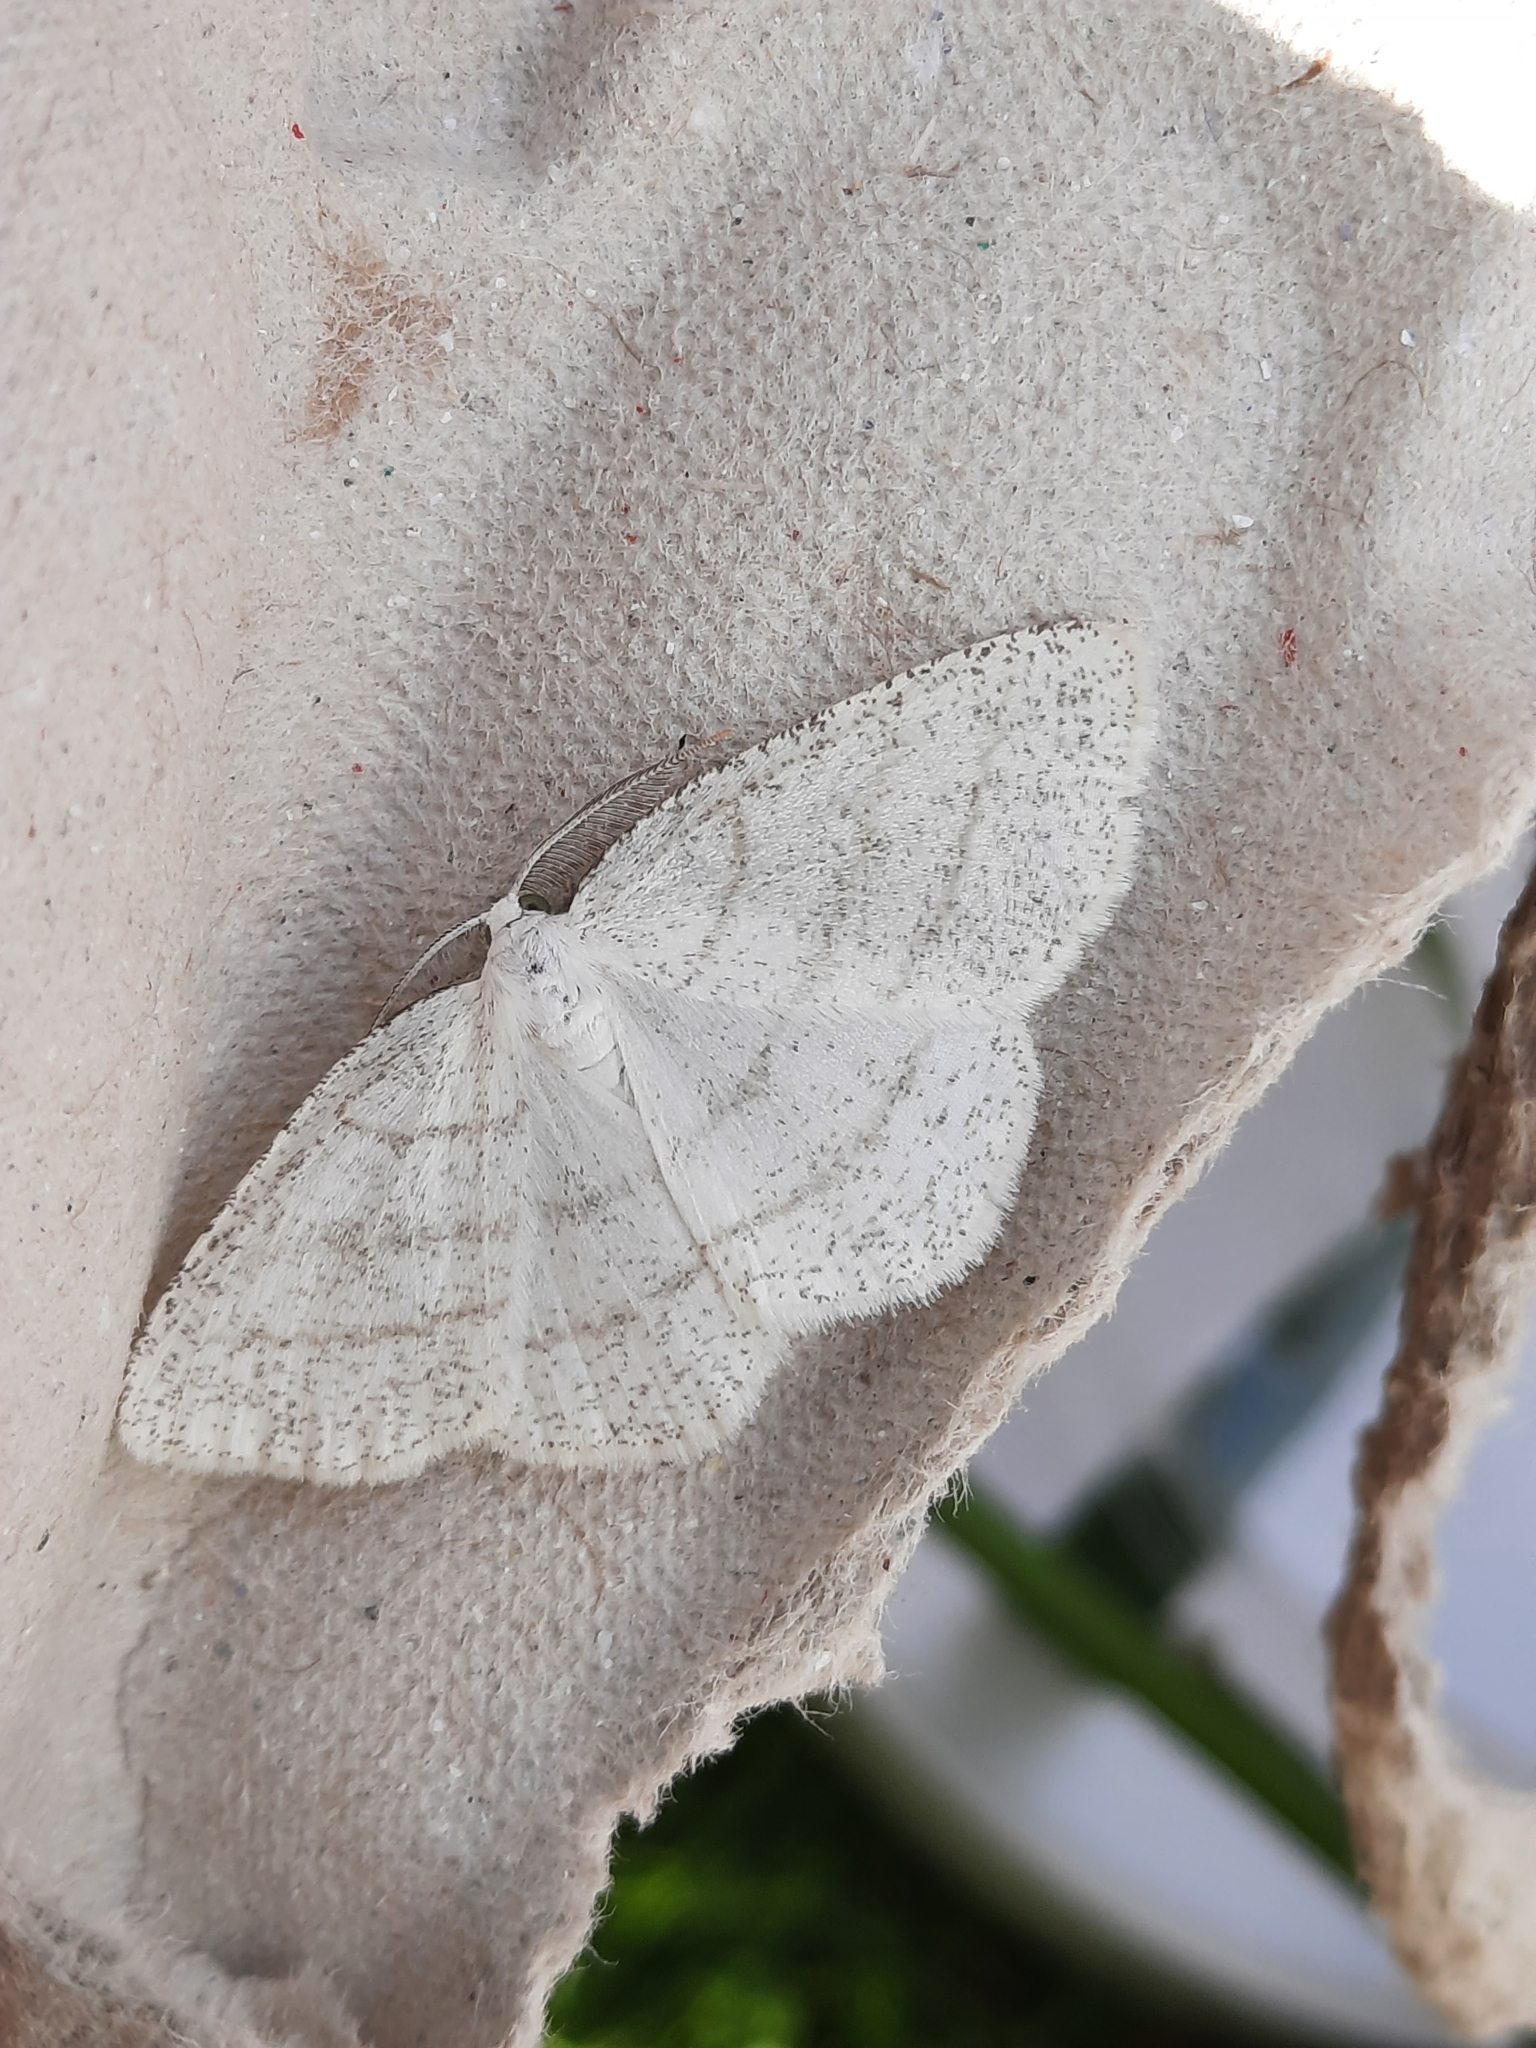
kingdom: Animalia
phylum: Arthropoda
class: Insecta
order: Lepidoptera
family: Geometridae
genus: Cabera
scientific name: Cabera pusaria
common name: Common white wave
